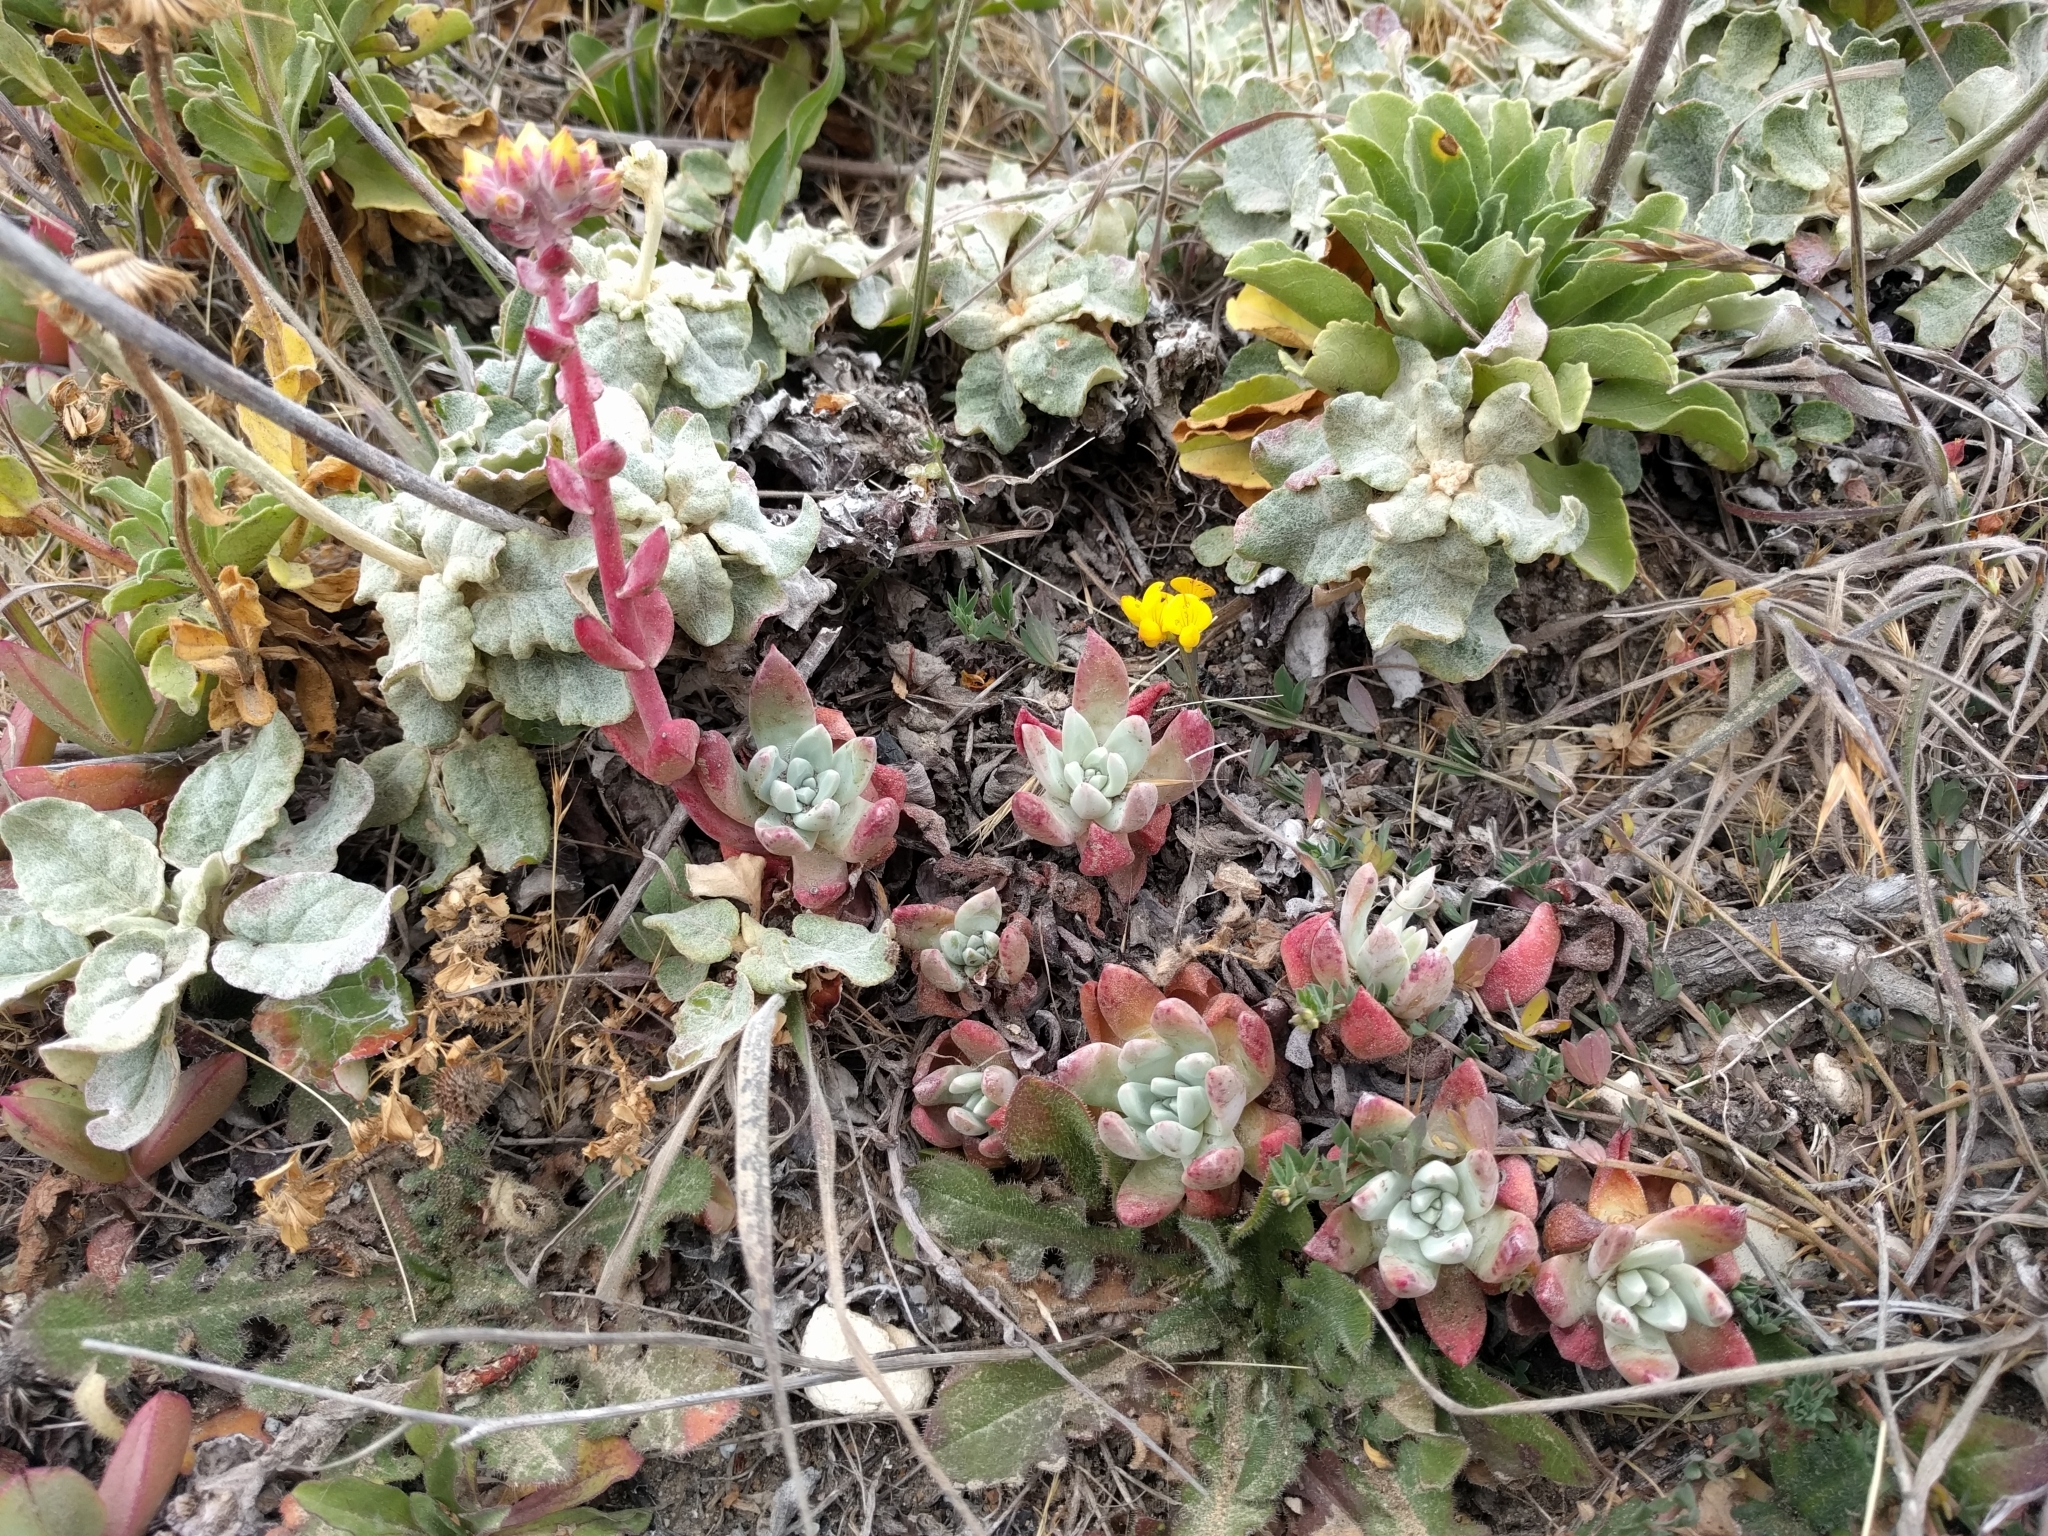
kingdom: Plantae
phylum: Tracheophyta
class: Magnoliopsida
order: Saxifragales
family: Crassulaceae
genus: Dudleya
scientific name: Dudleya farinosa
